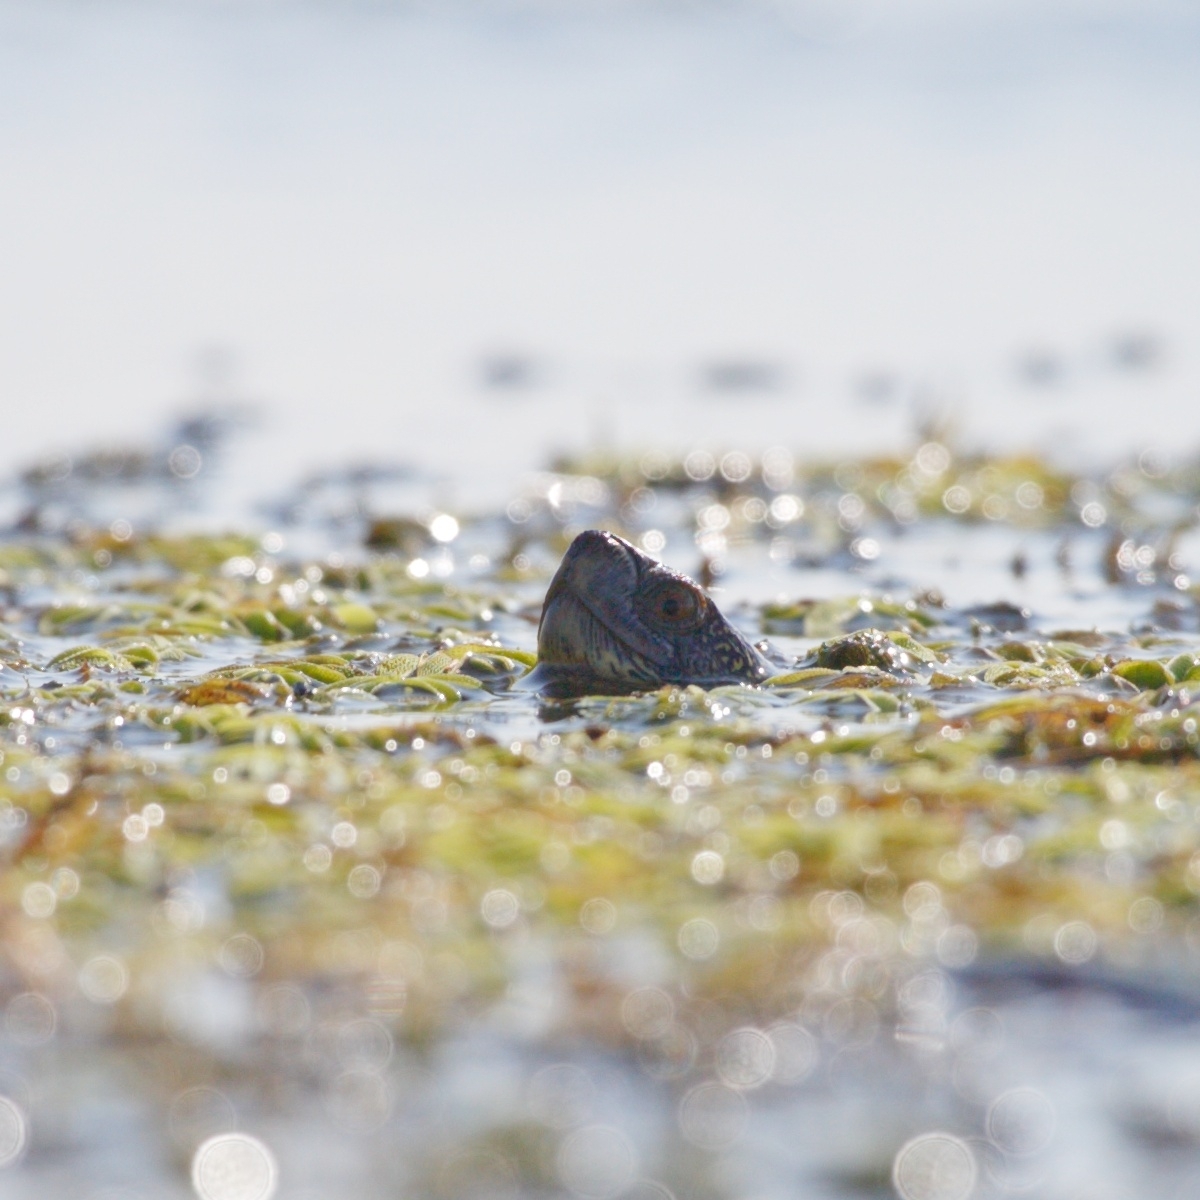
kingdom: Animalia
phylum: Chordata
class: Testudines
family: Emydidae
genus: Emys
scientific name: Emys orbicularis
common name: European pond turtle
